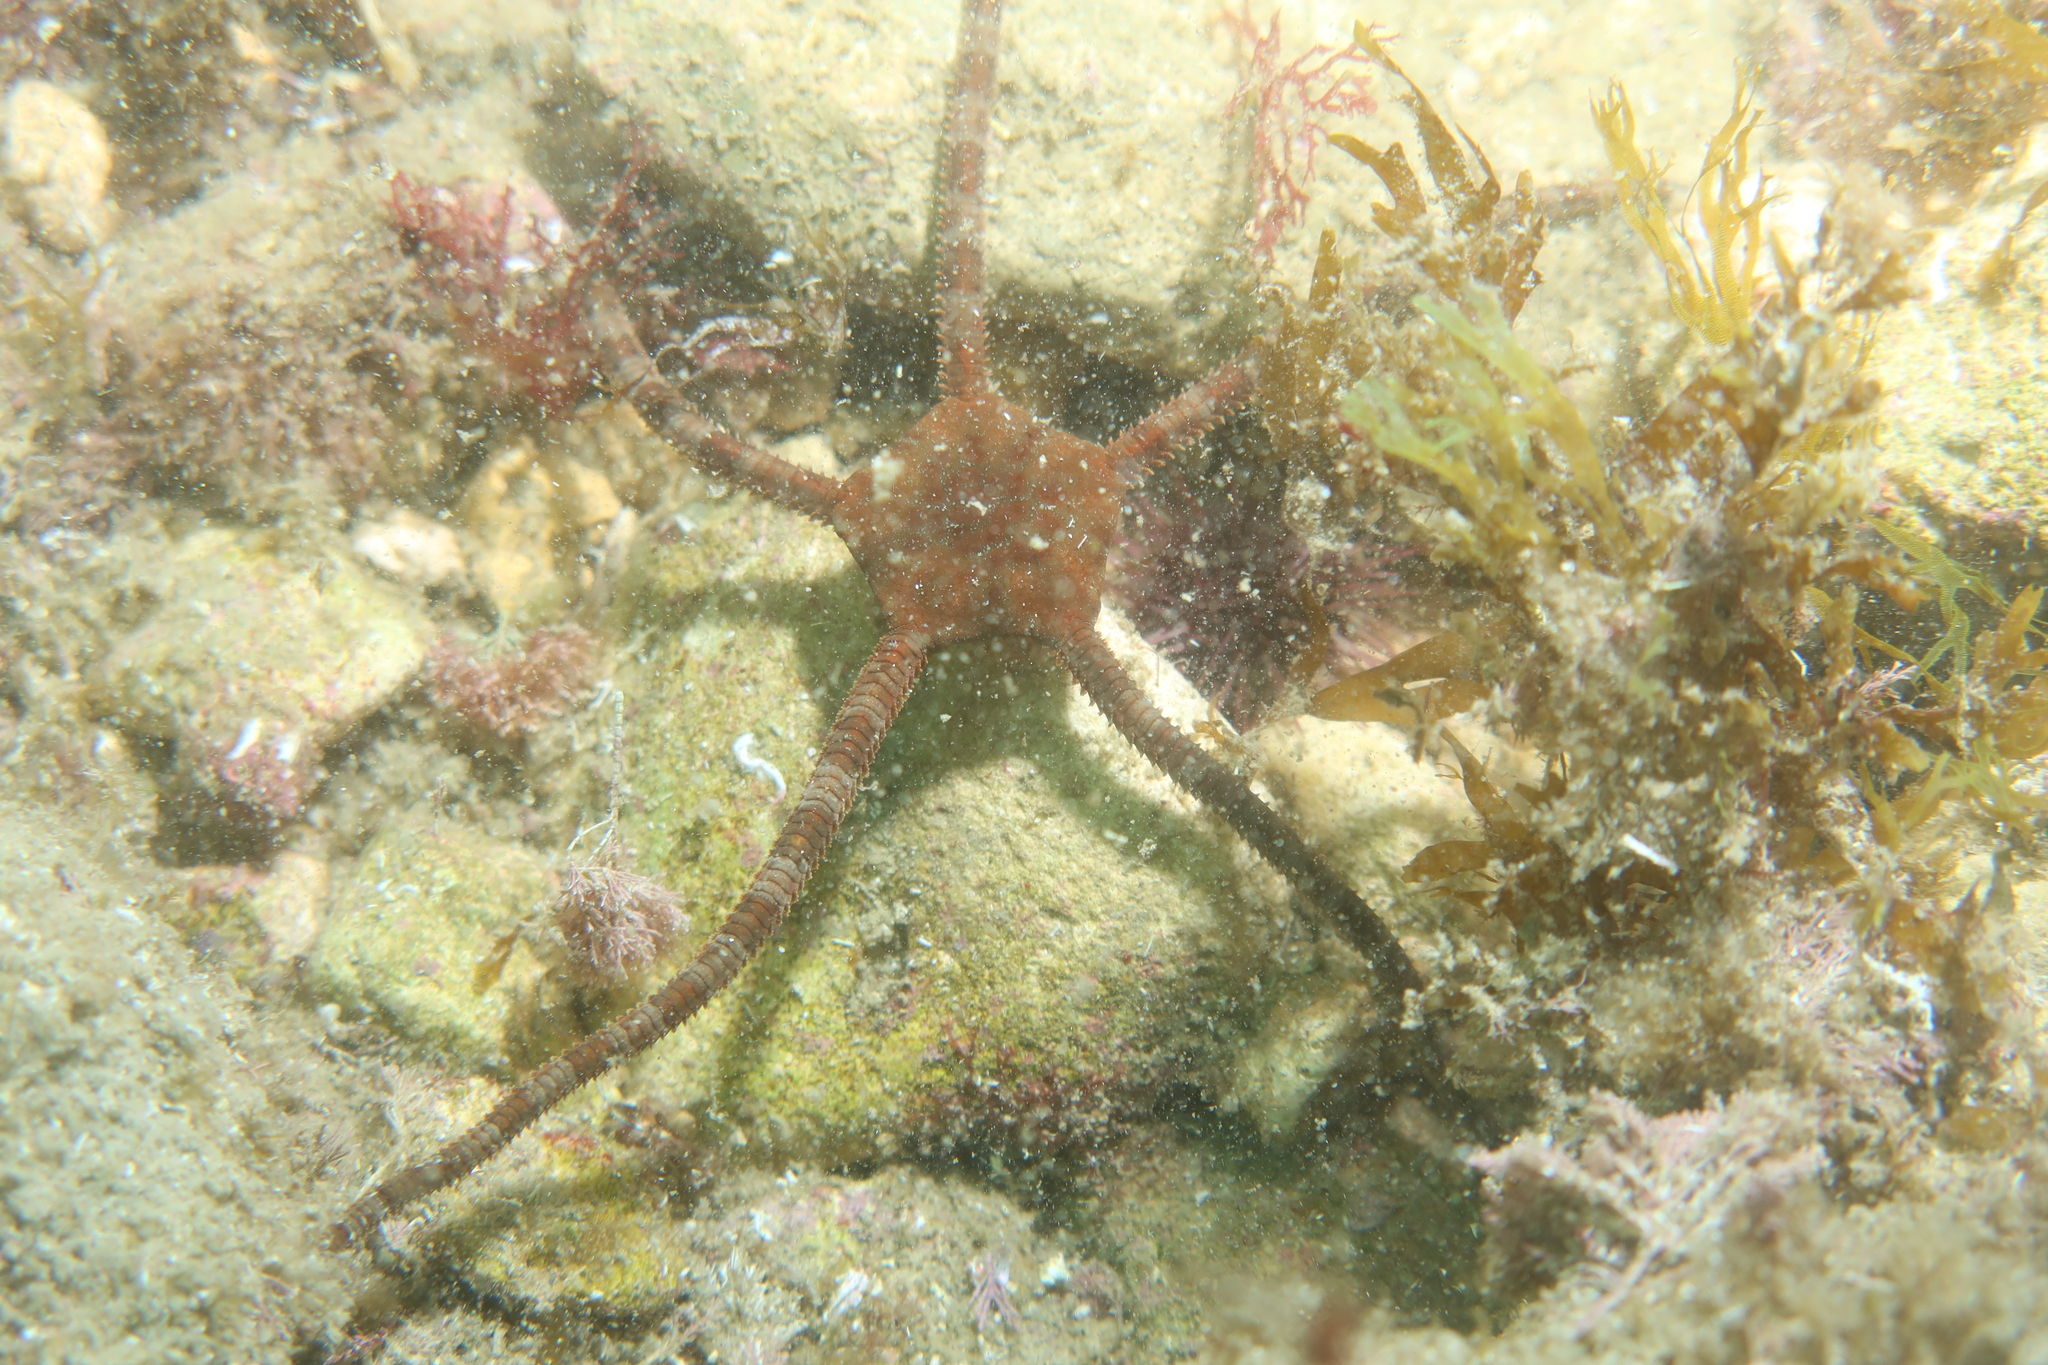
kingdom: Animalia
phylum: Echinodermata
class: Ophiuroidea
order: Ophiacanthida
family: Ophiodermatidae
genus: Ophioderma
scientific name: Ophioderma longicaudum
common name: Smooth brittle-star
